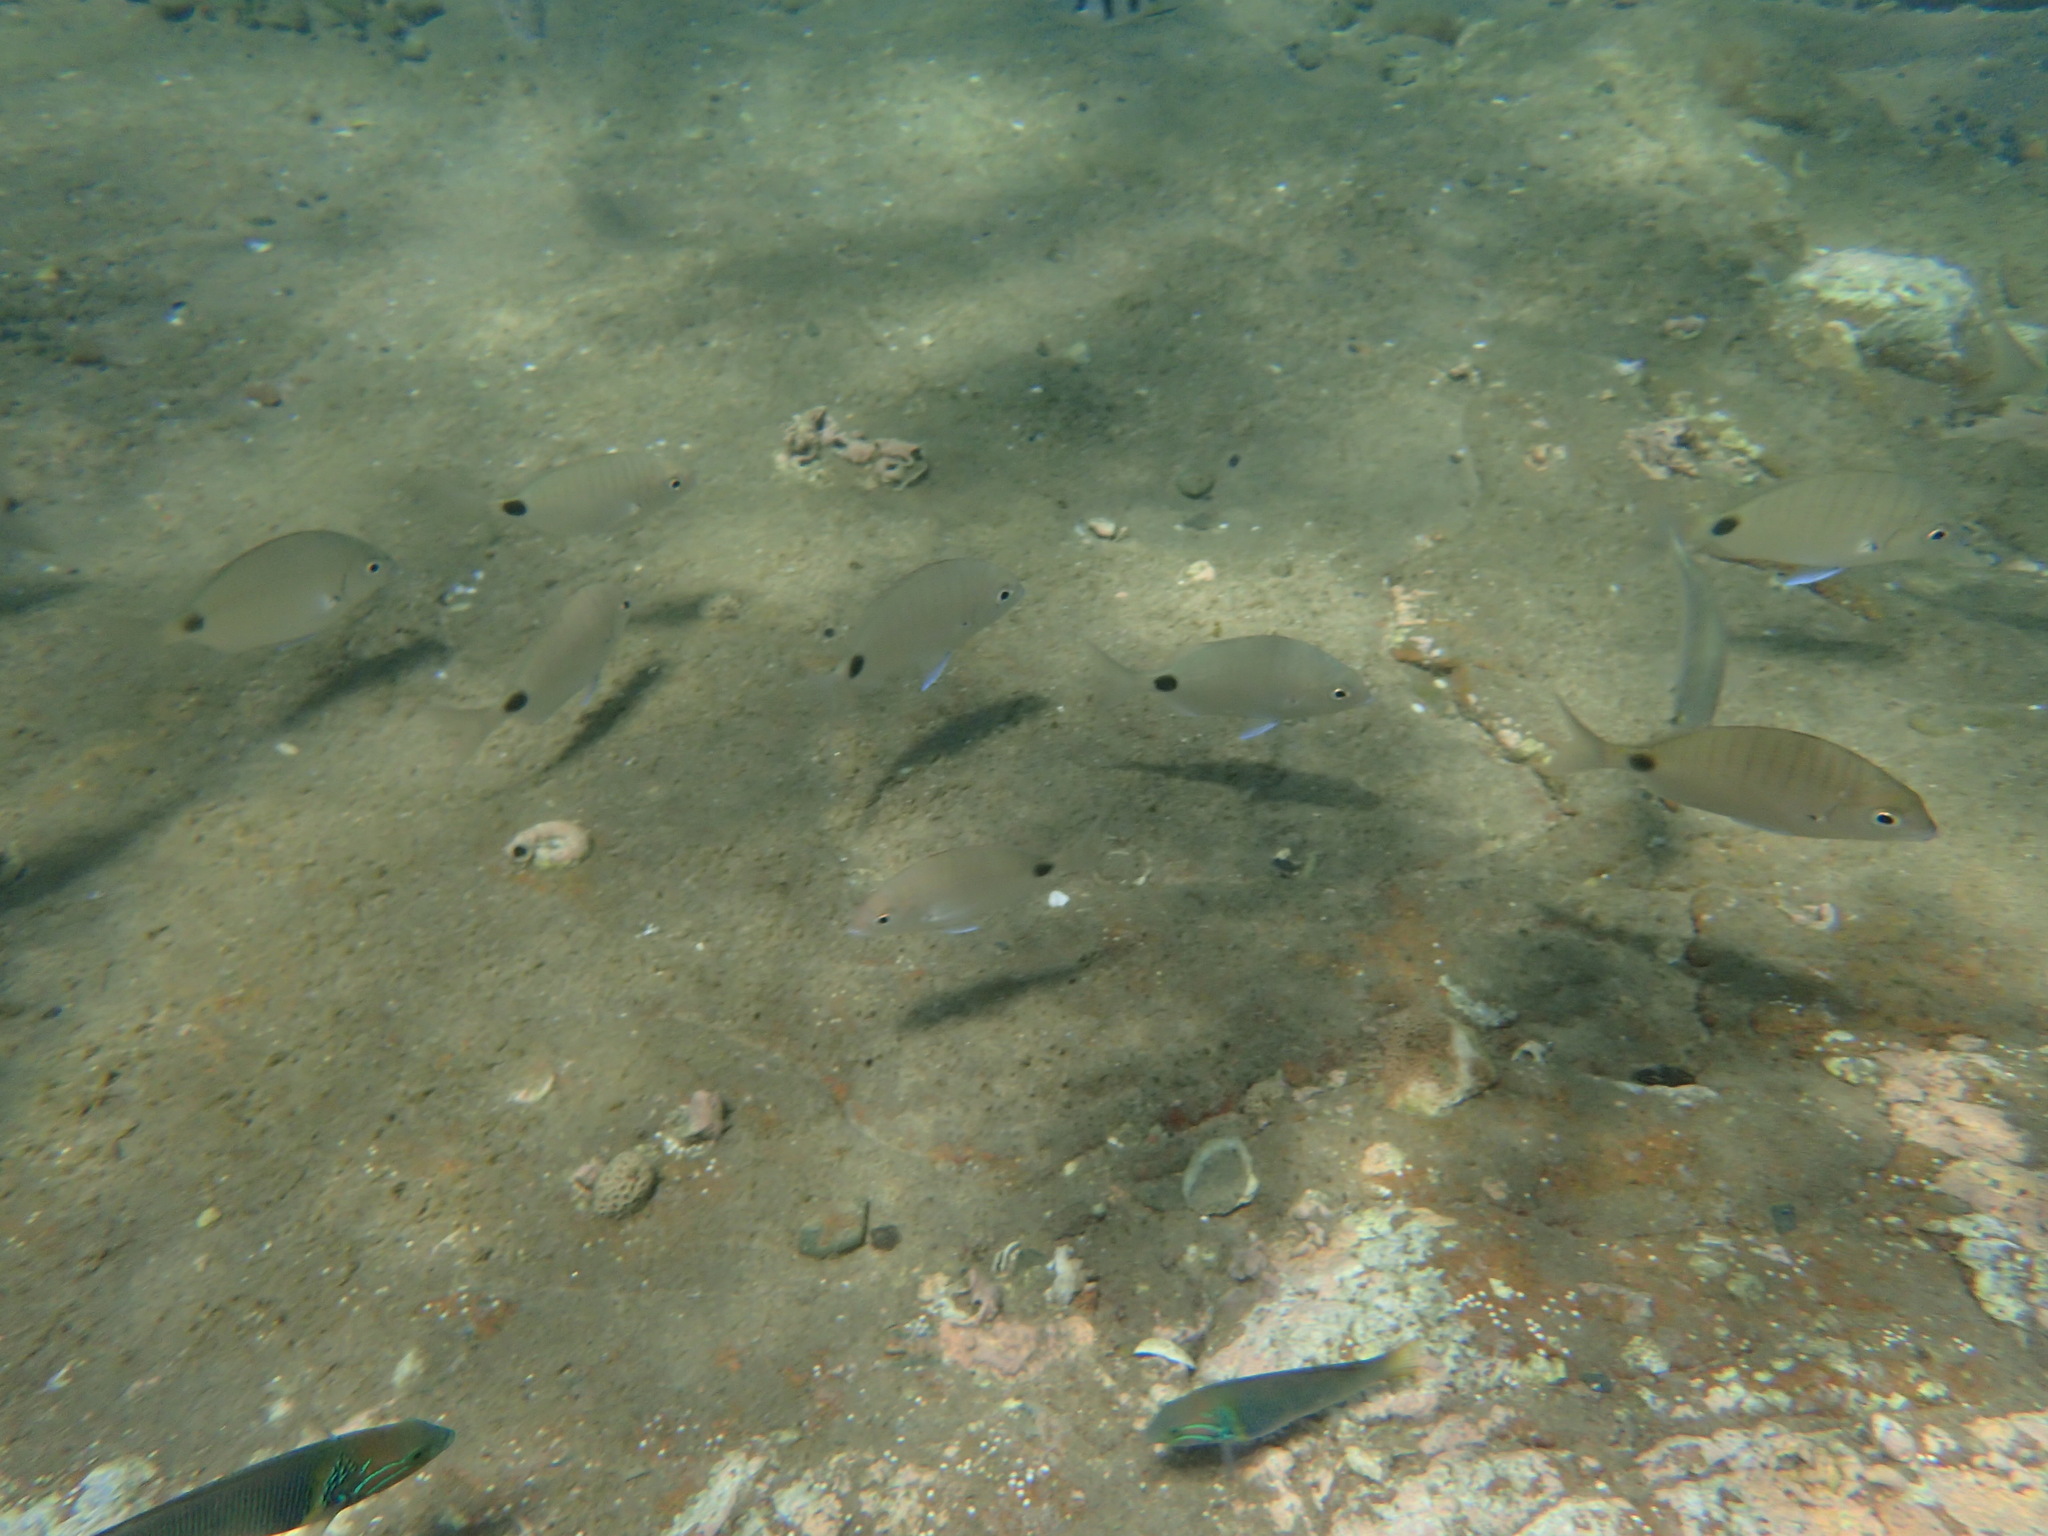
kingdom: Animalia
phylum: Chordata
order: Perciformes
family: Sparidae
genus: Diplodus
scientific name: Diplodus capensis
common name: Blacktail
